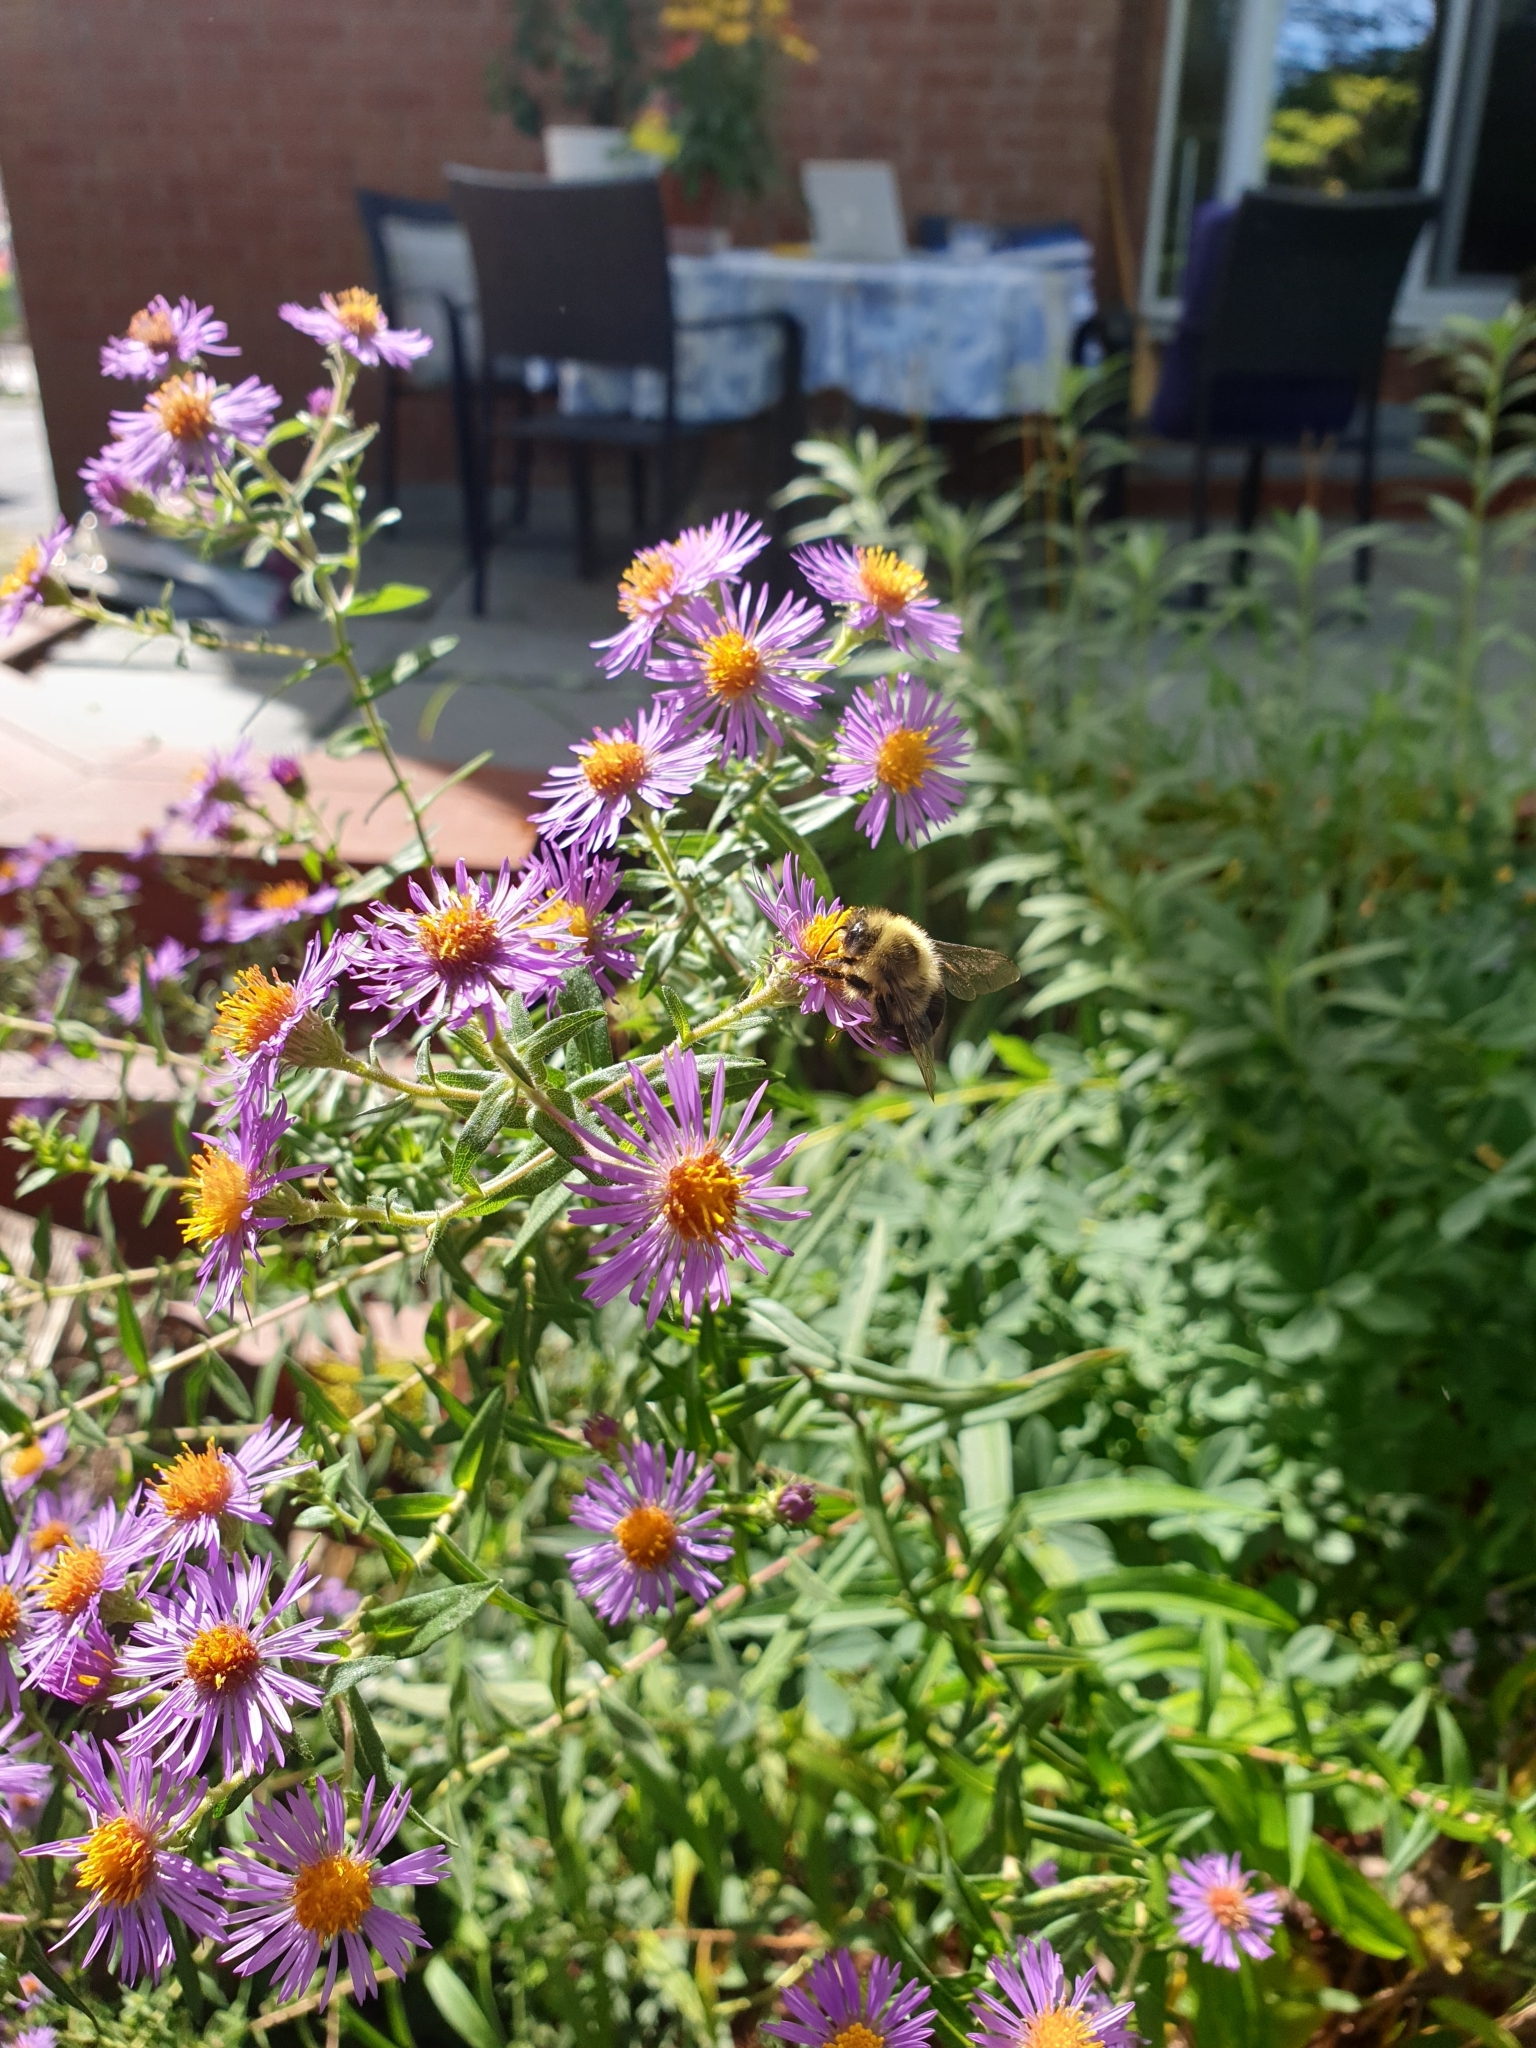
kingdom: Animalia
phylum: Arthropoda
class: Insecta
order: Hymenoptera
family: Apidae
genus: Bombus
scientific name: Bombus impatiens
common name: Common eastern bumble bee
